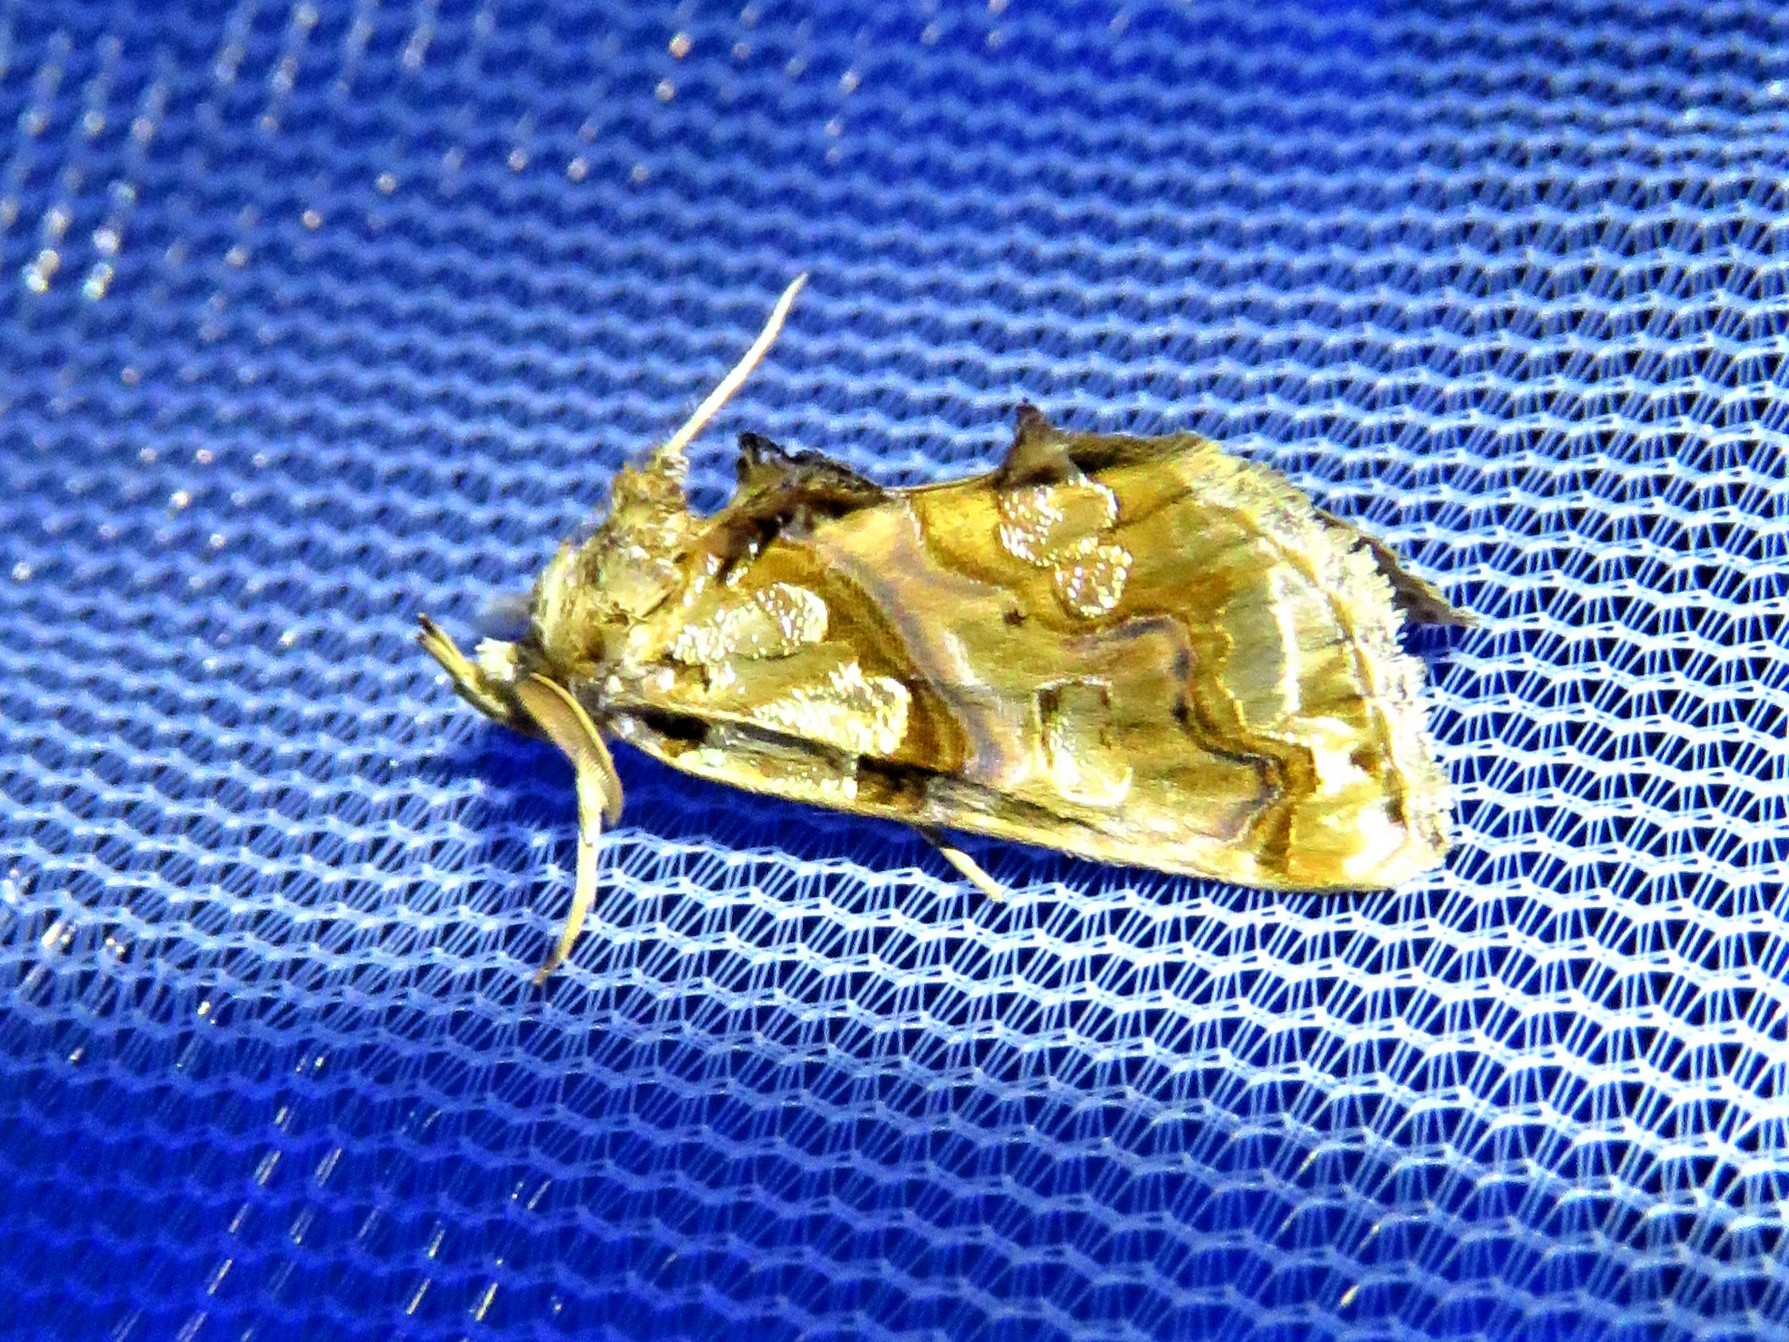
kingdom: Animalia
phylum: Arthropoda
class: Insecta
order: Lepidoptera
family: Erebidae
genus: Plusiodonta
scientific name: Plusiodonta compressipalpis
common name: Moonseed moth
